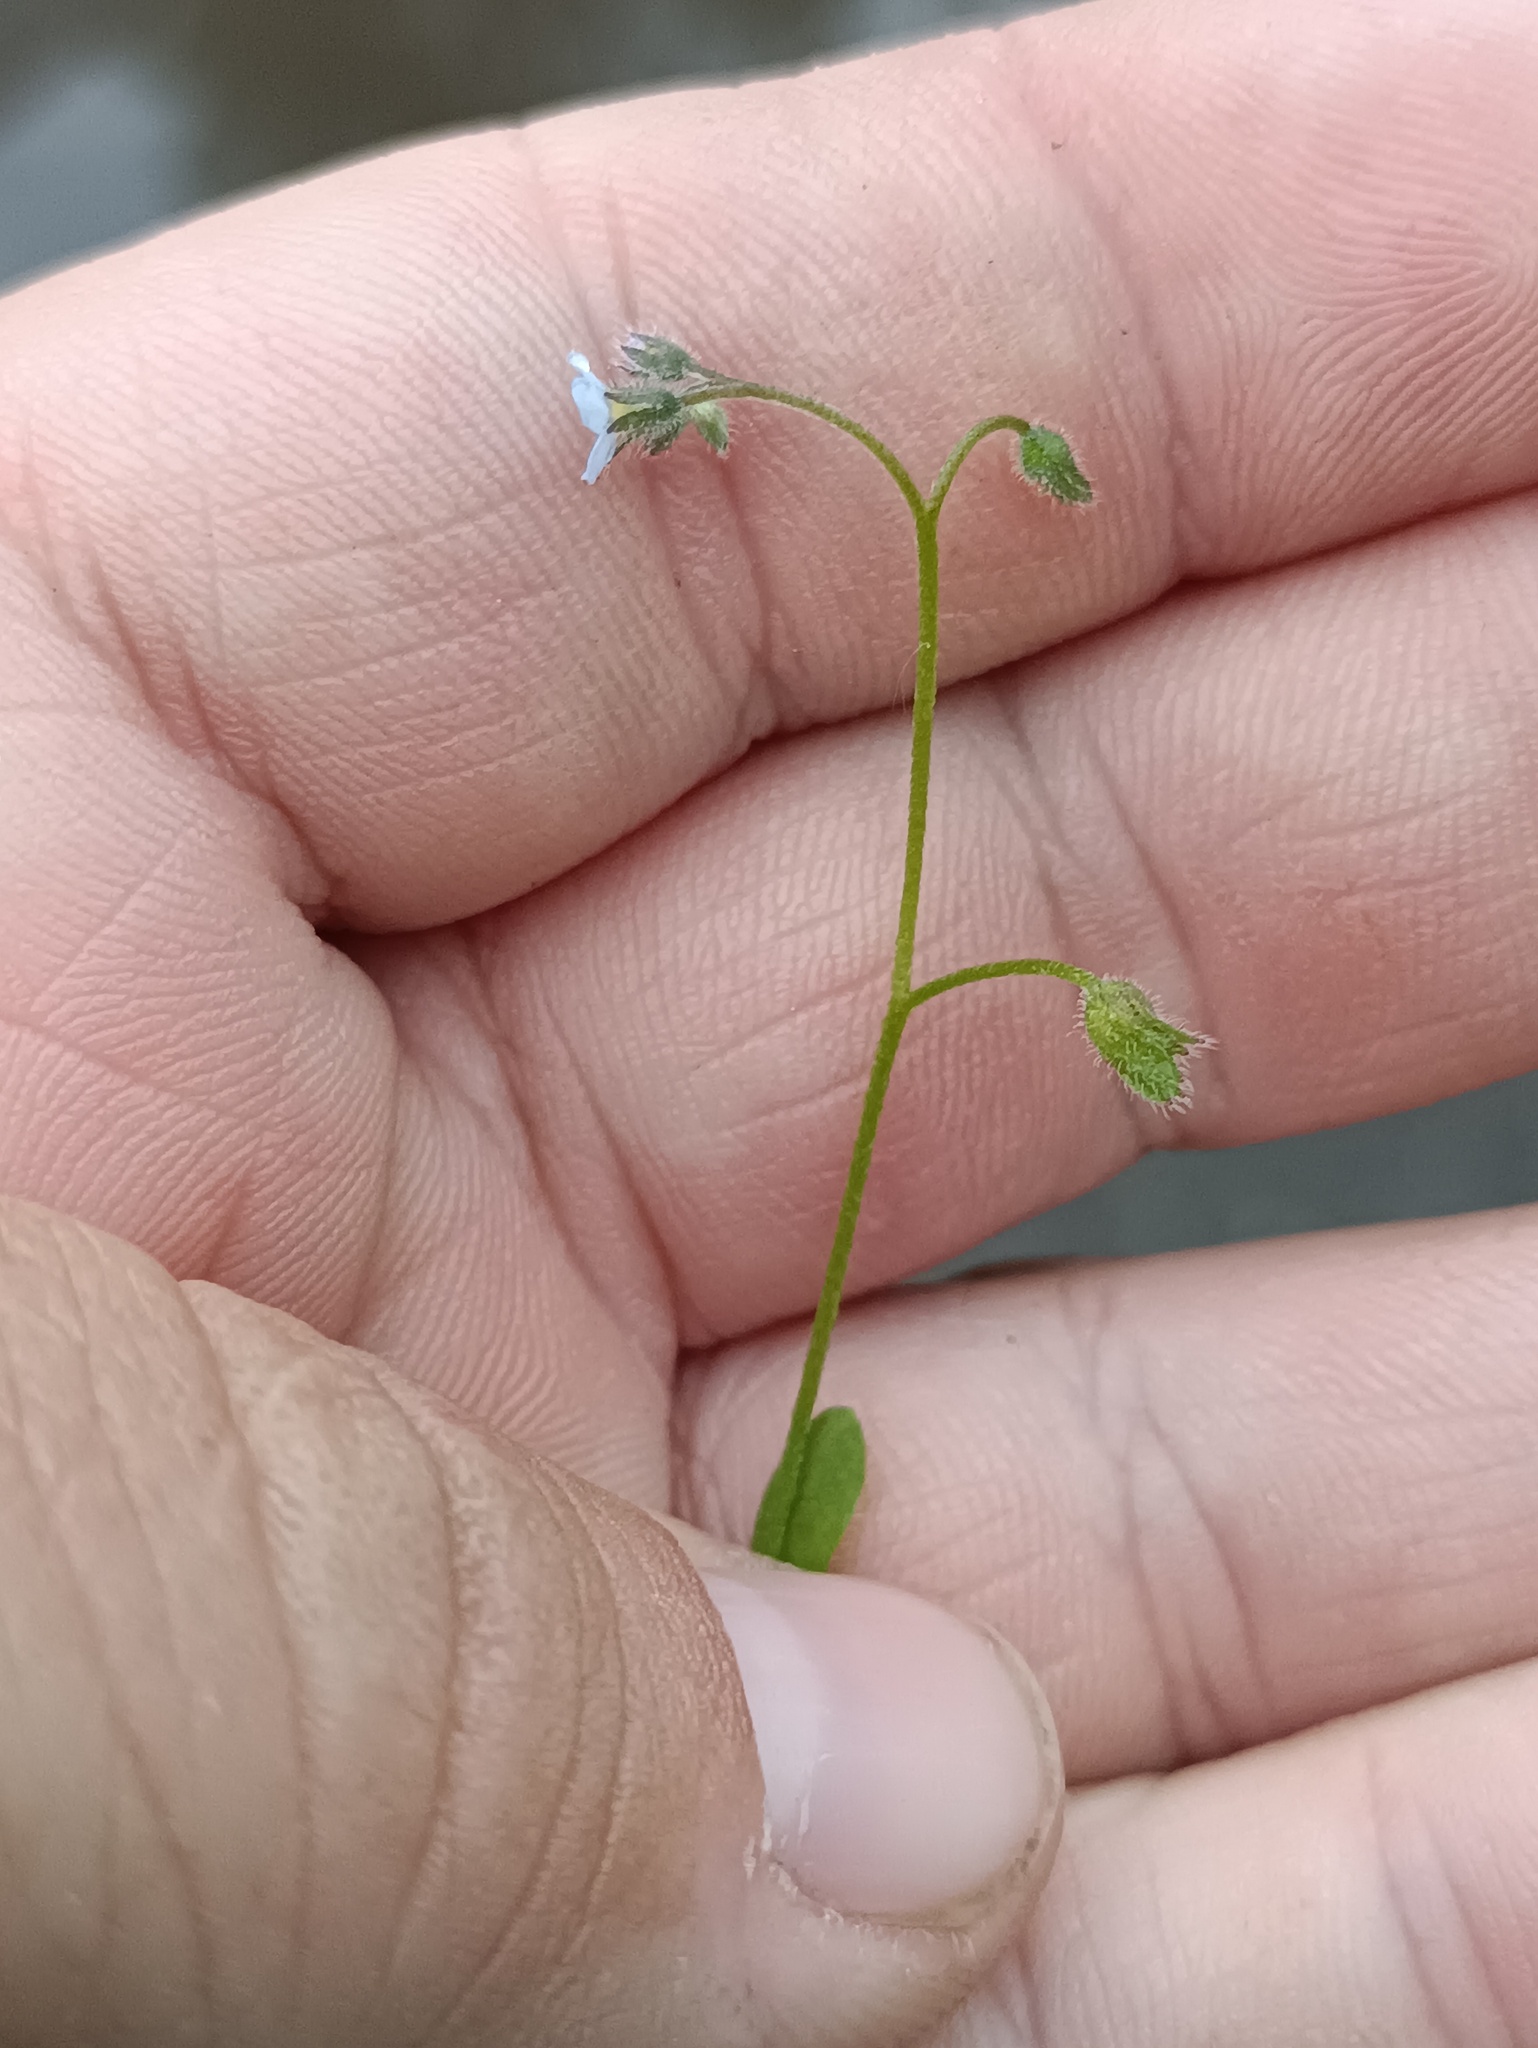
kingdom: Plantae
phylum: Tracheophyta
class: Magnoliopsida
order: Boraginales
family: Boraginaceae
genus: Myosotis
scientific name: Myosotis arvensis
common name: Field forget-me-not
